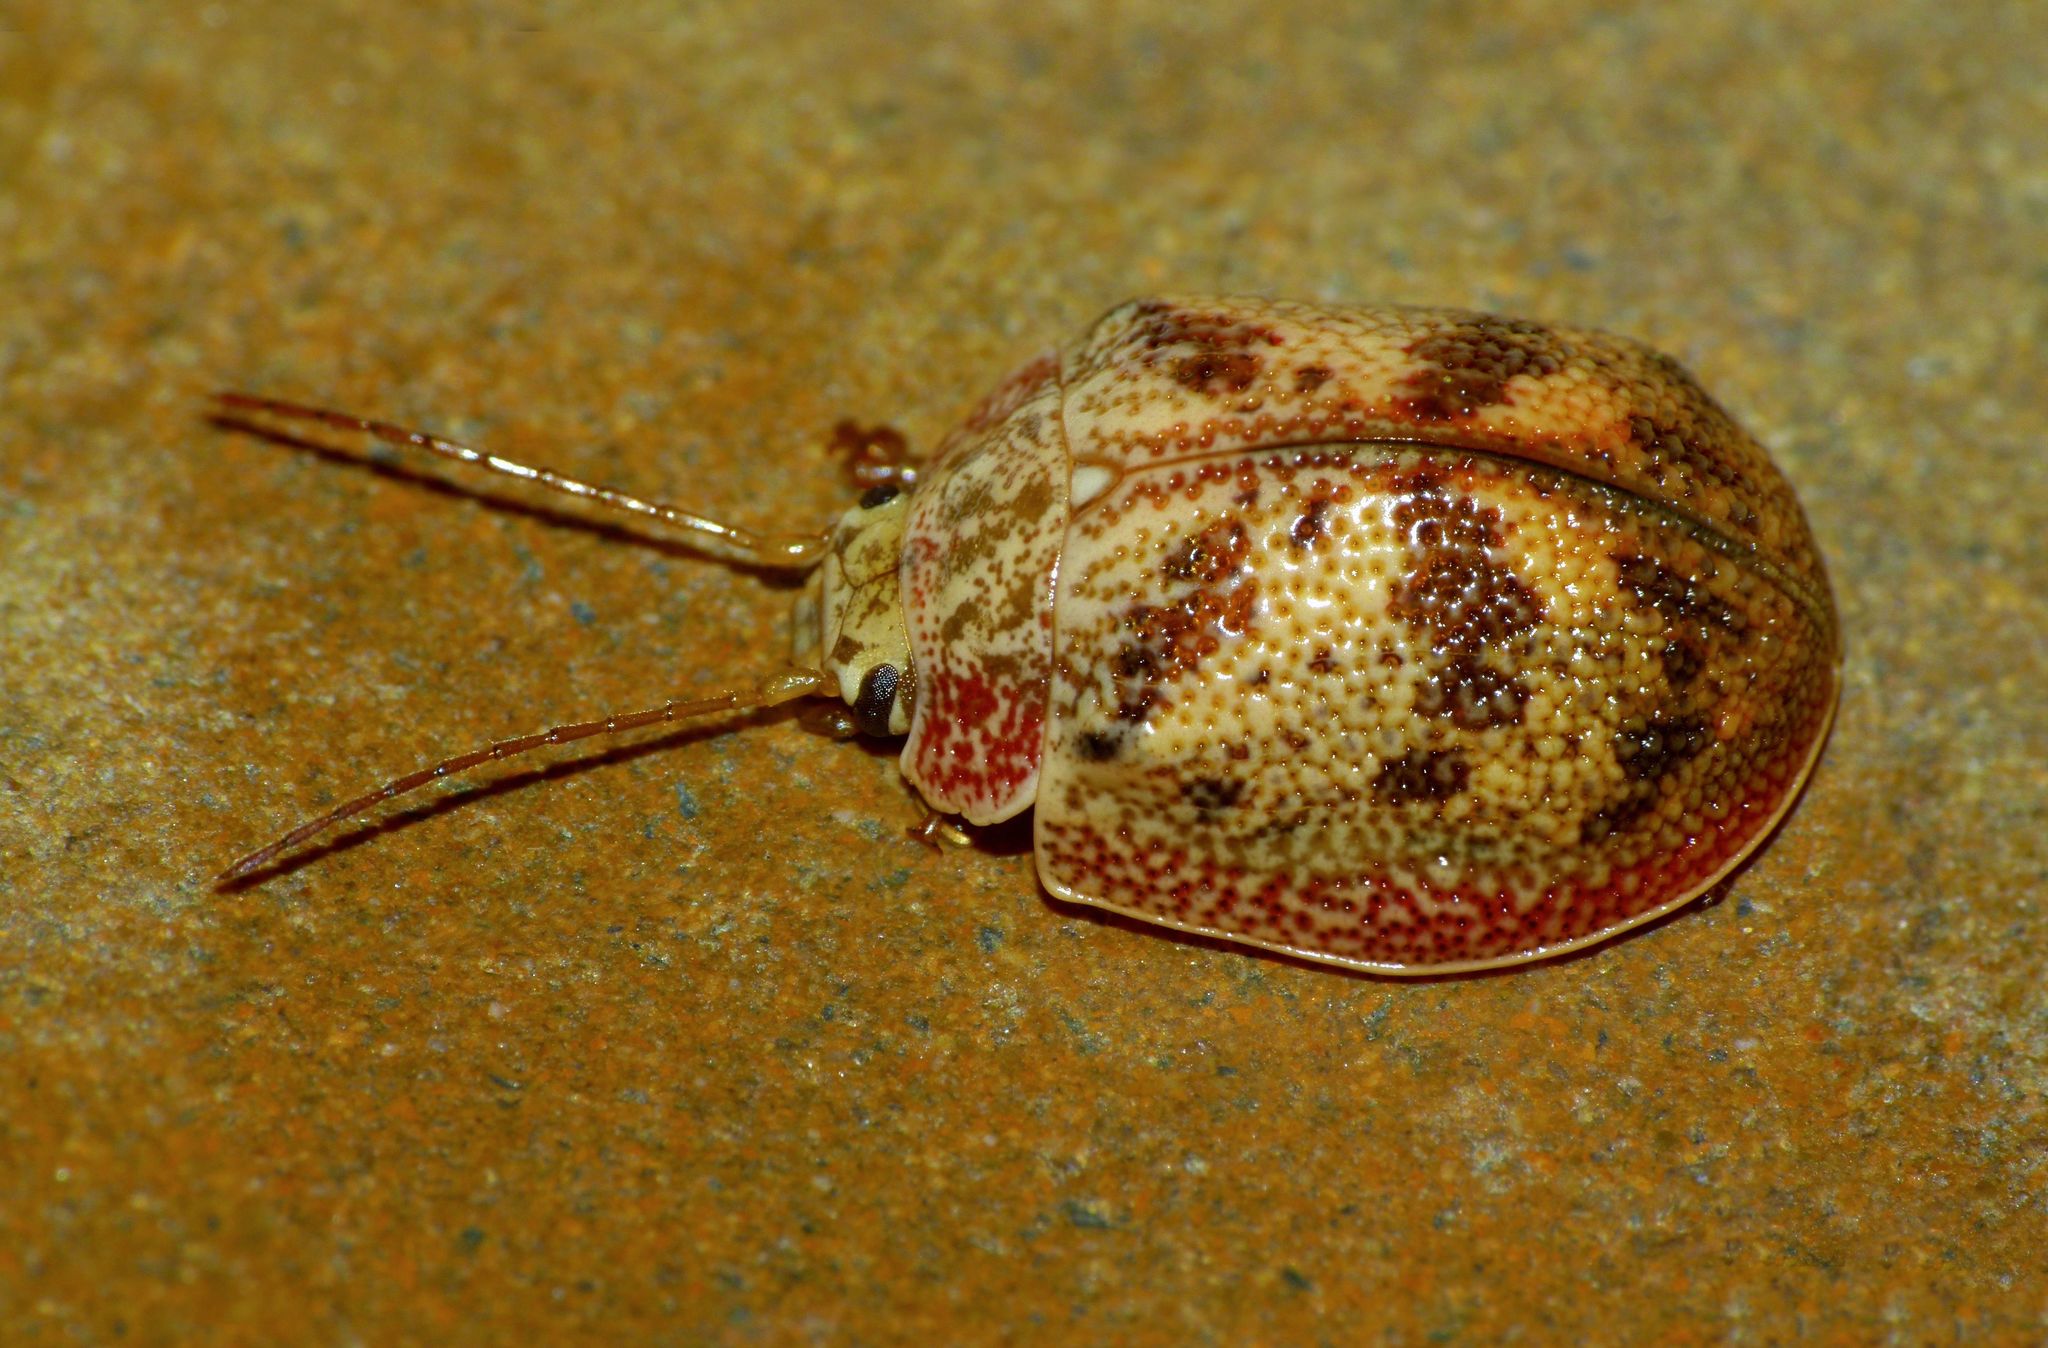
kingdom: Animalia
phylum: Arthropoda
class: Insecta
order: Coleoptera
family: Chrysomelidae
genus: Paropsis
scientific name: Paropsis charybdis
